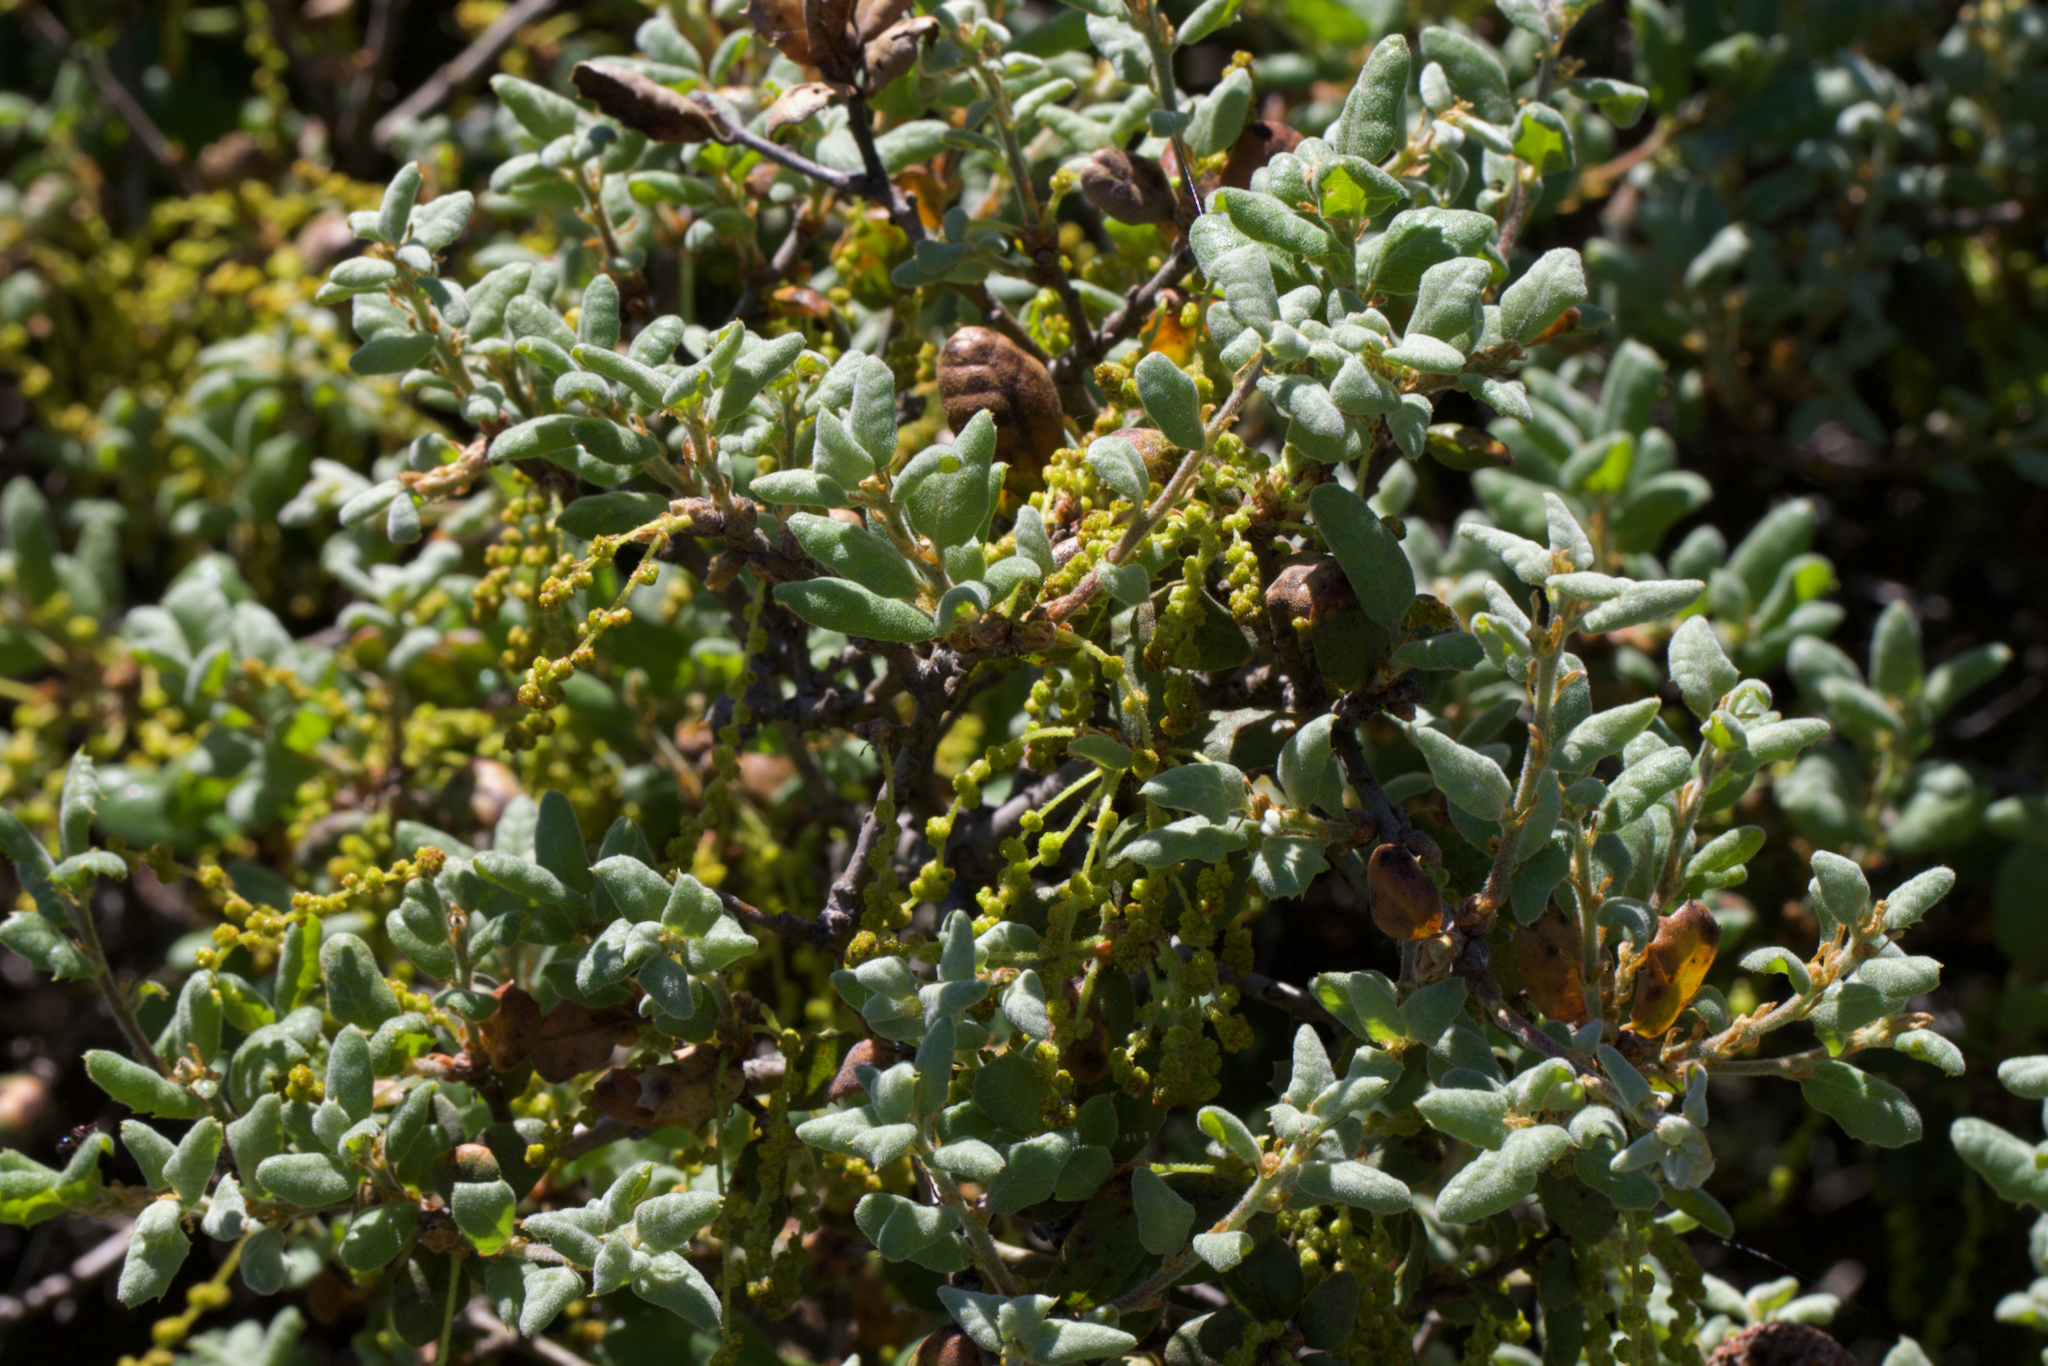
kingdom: Plantae
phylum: Tracheophyta
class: Magnoliopsida
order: Fagales
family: Fagaceae
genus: Quercus
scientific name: Quercus durata
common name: Leather oak
